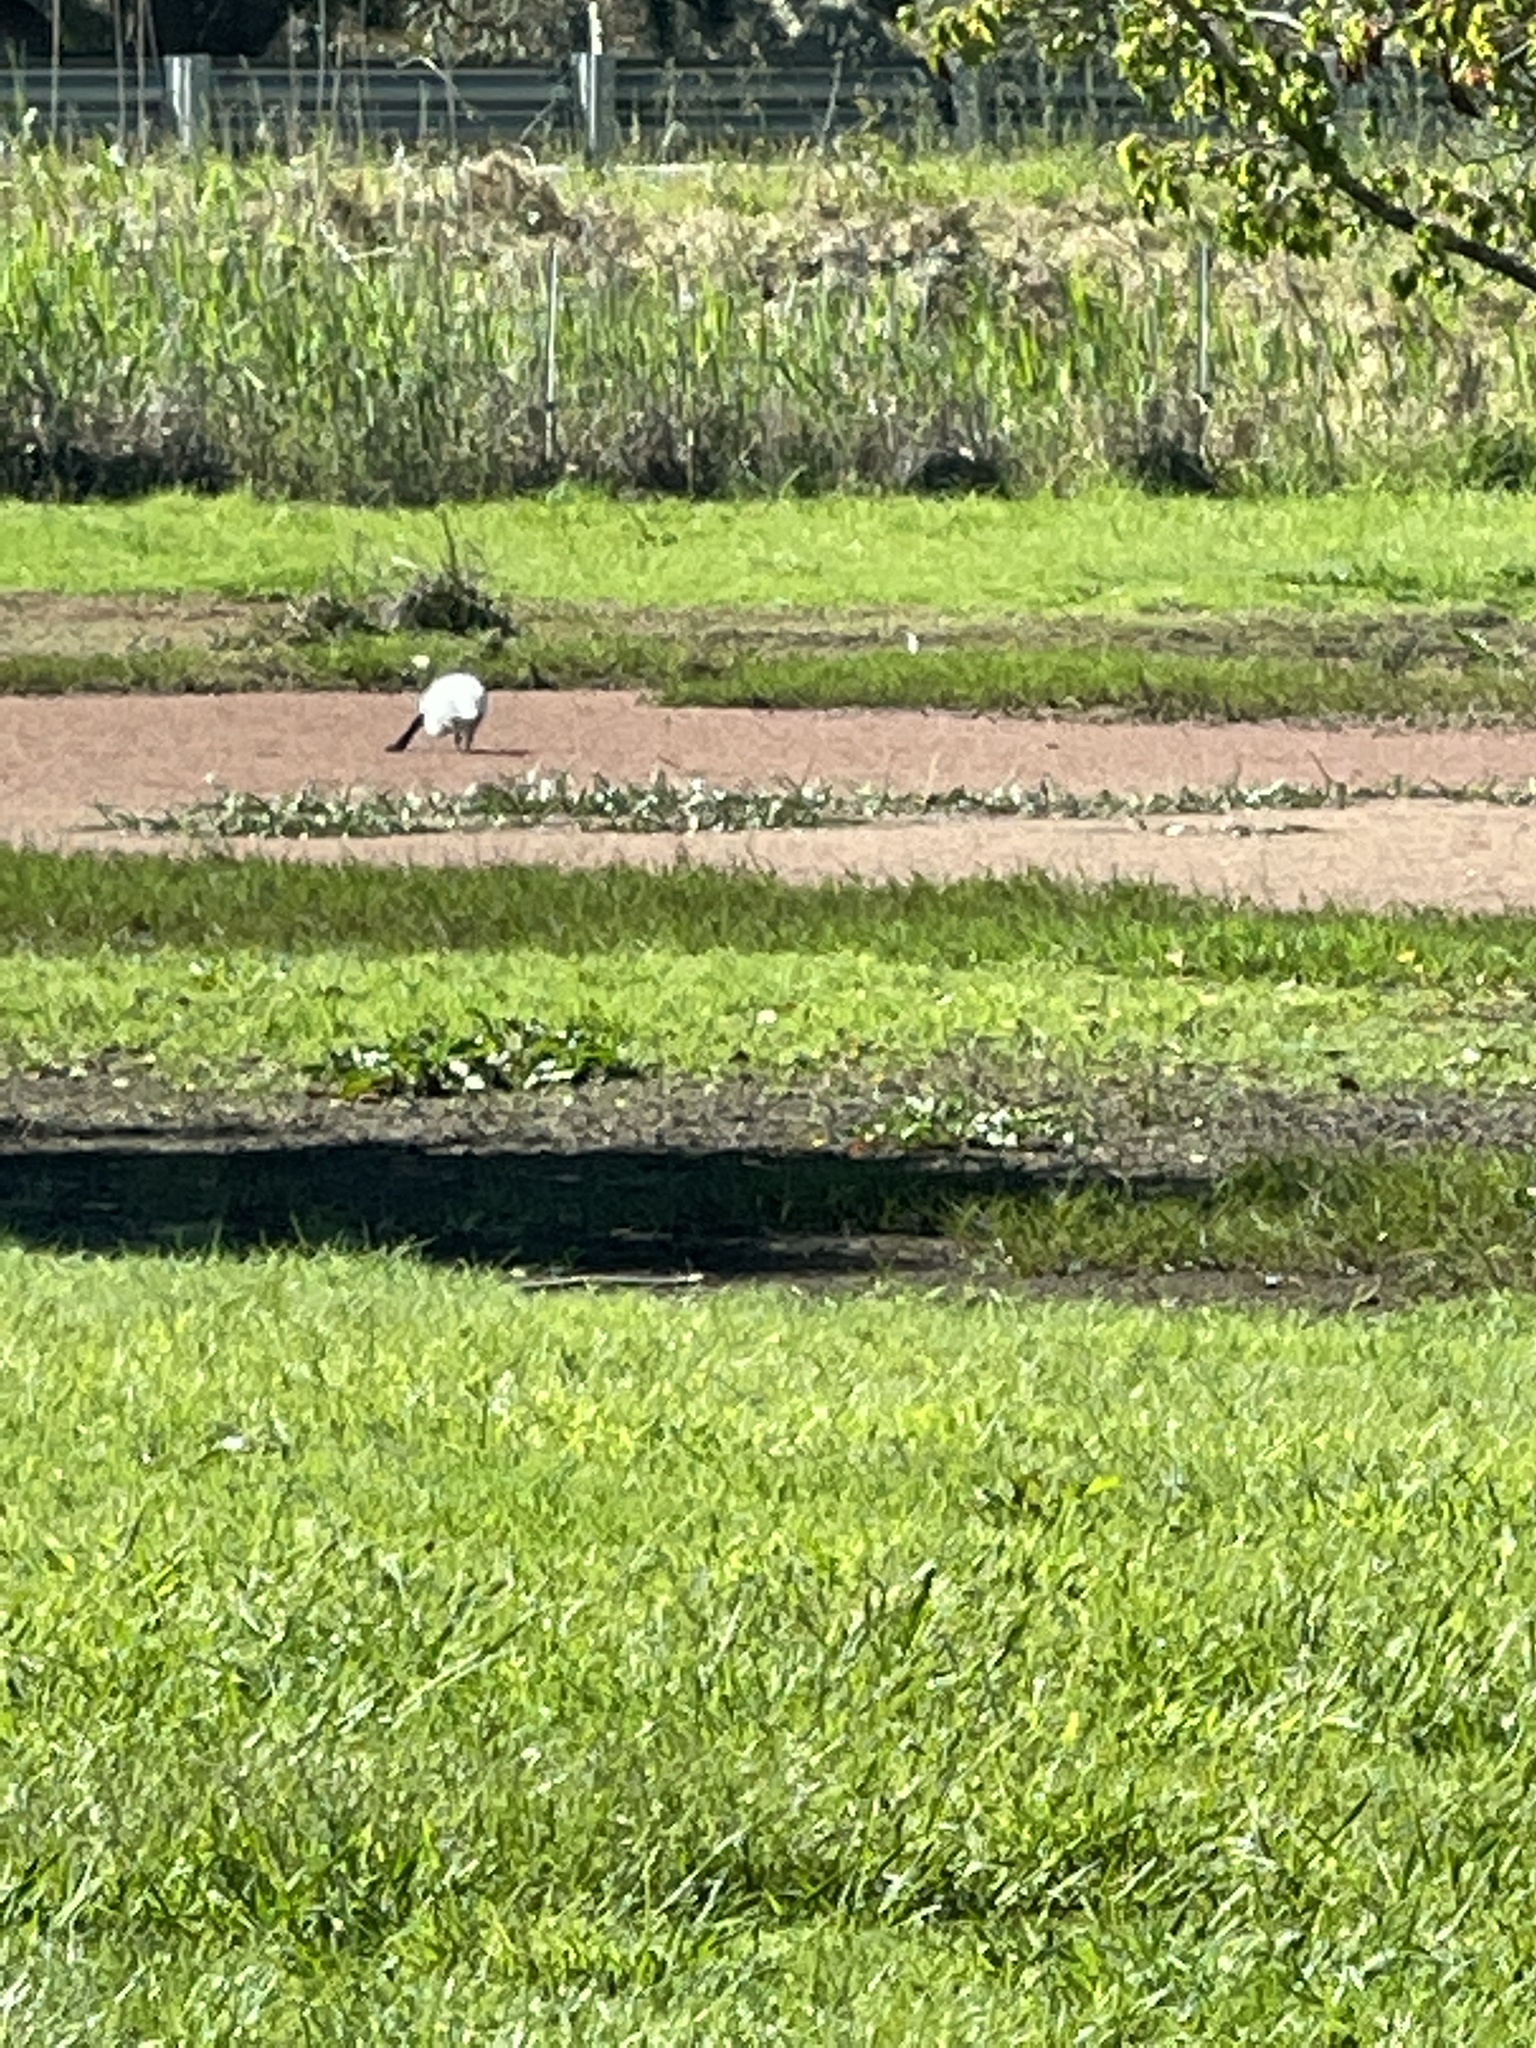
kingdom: Animalia
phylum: Chordata
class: Aves
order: Pelecaniformes
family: Threskiornithidae
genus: Platalea
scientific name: Platalea regia
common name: Royal spoonbill
